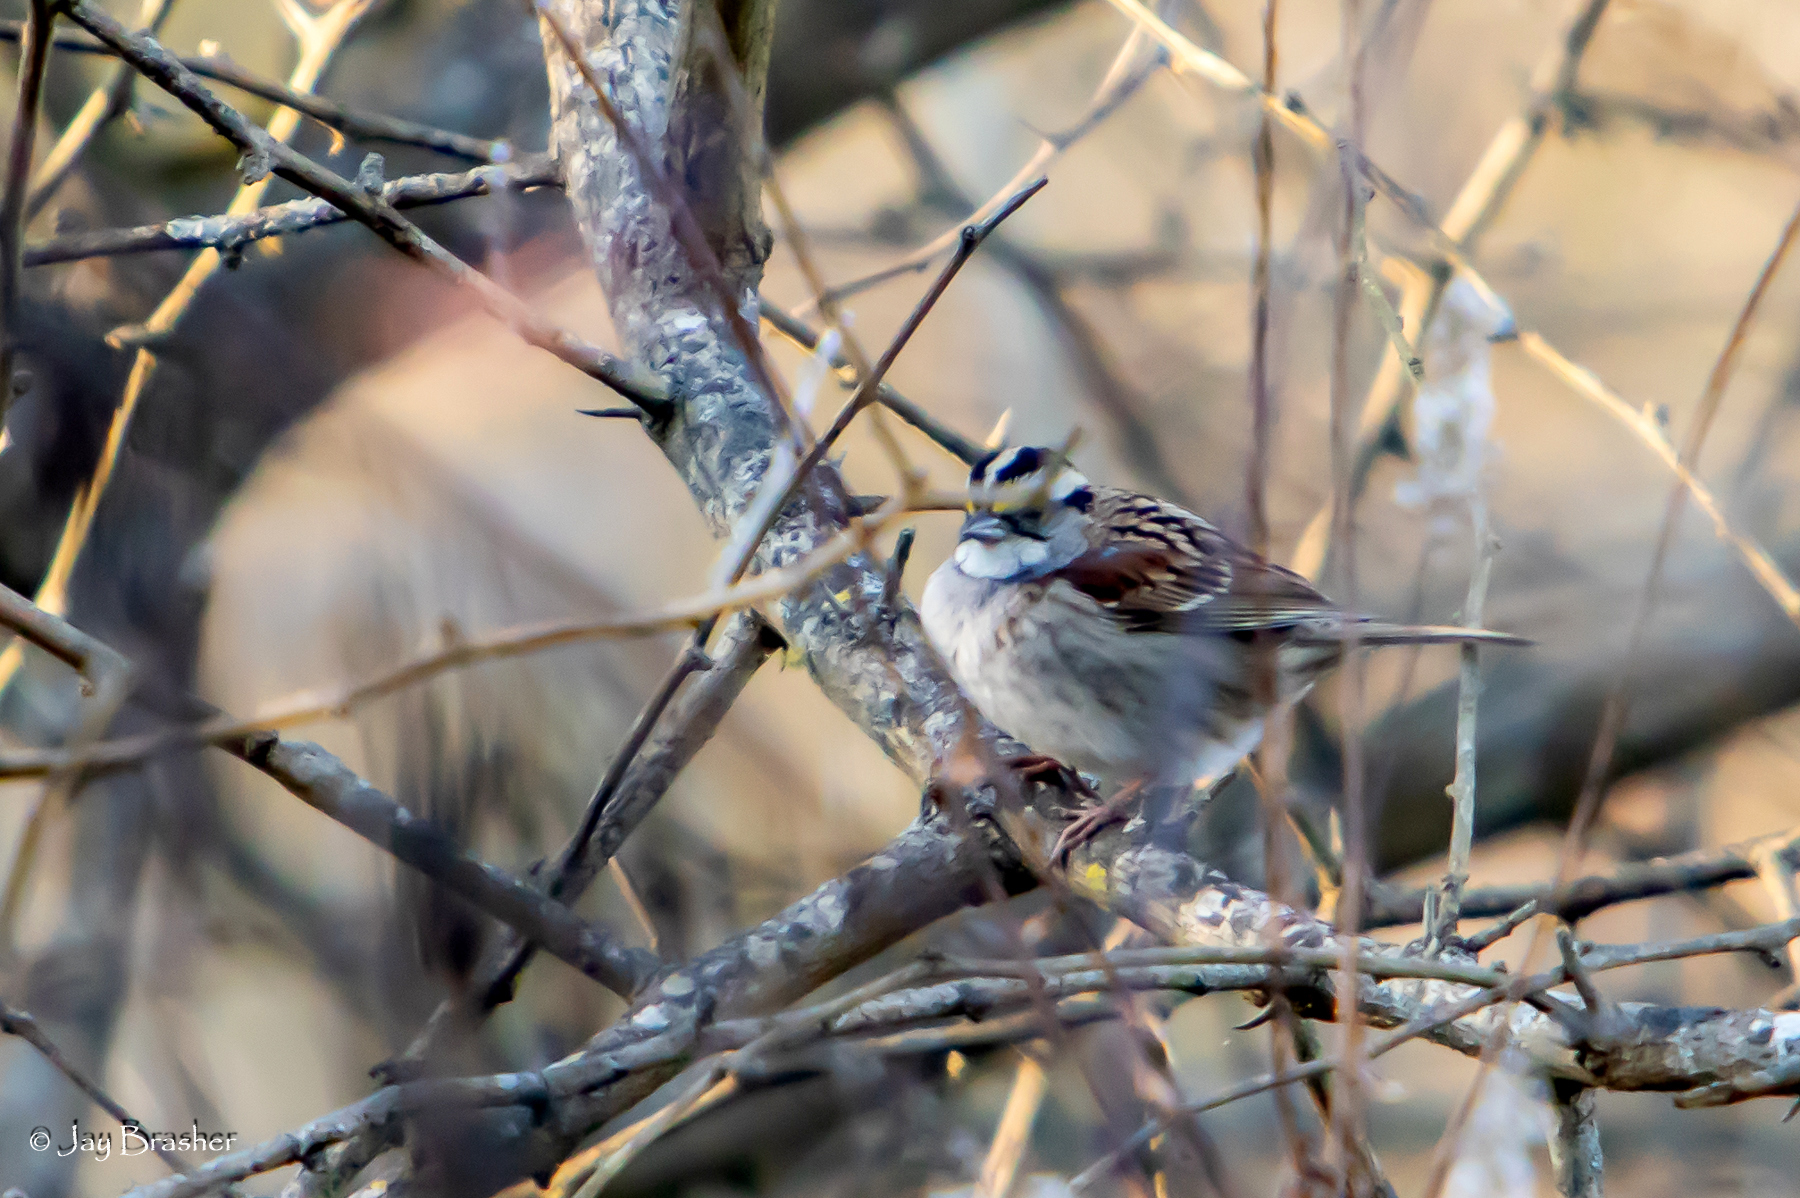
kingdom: Animalia
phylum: Chordata
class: Aves
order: Passeriformes
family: Passerellidae
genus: Zonotrichia
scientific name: Zonotrichia albicollis
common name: White-throated sparrow
